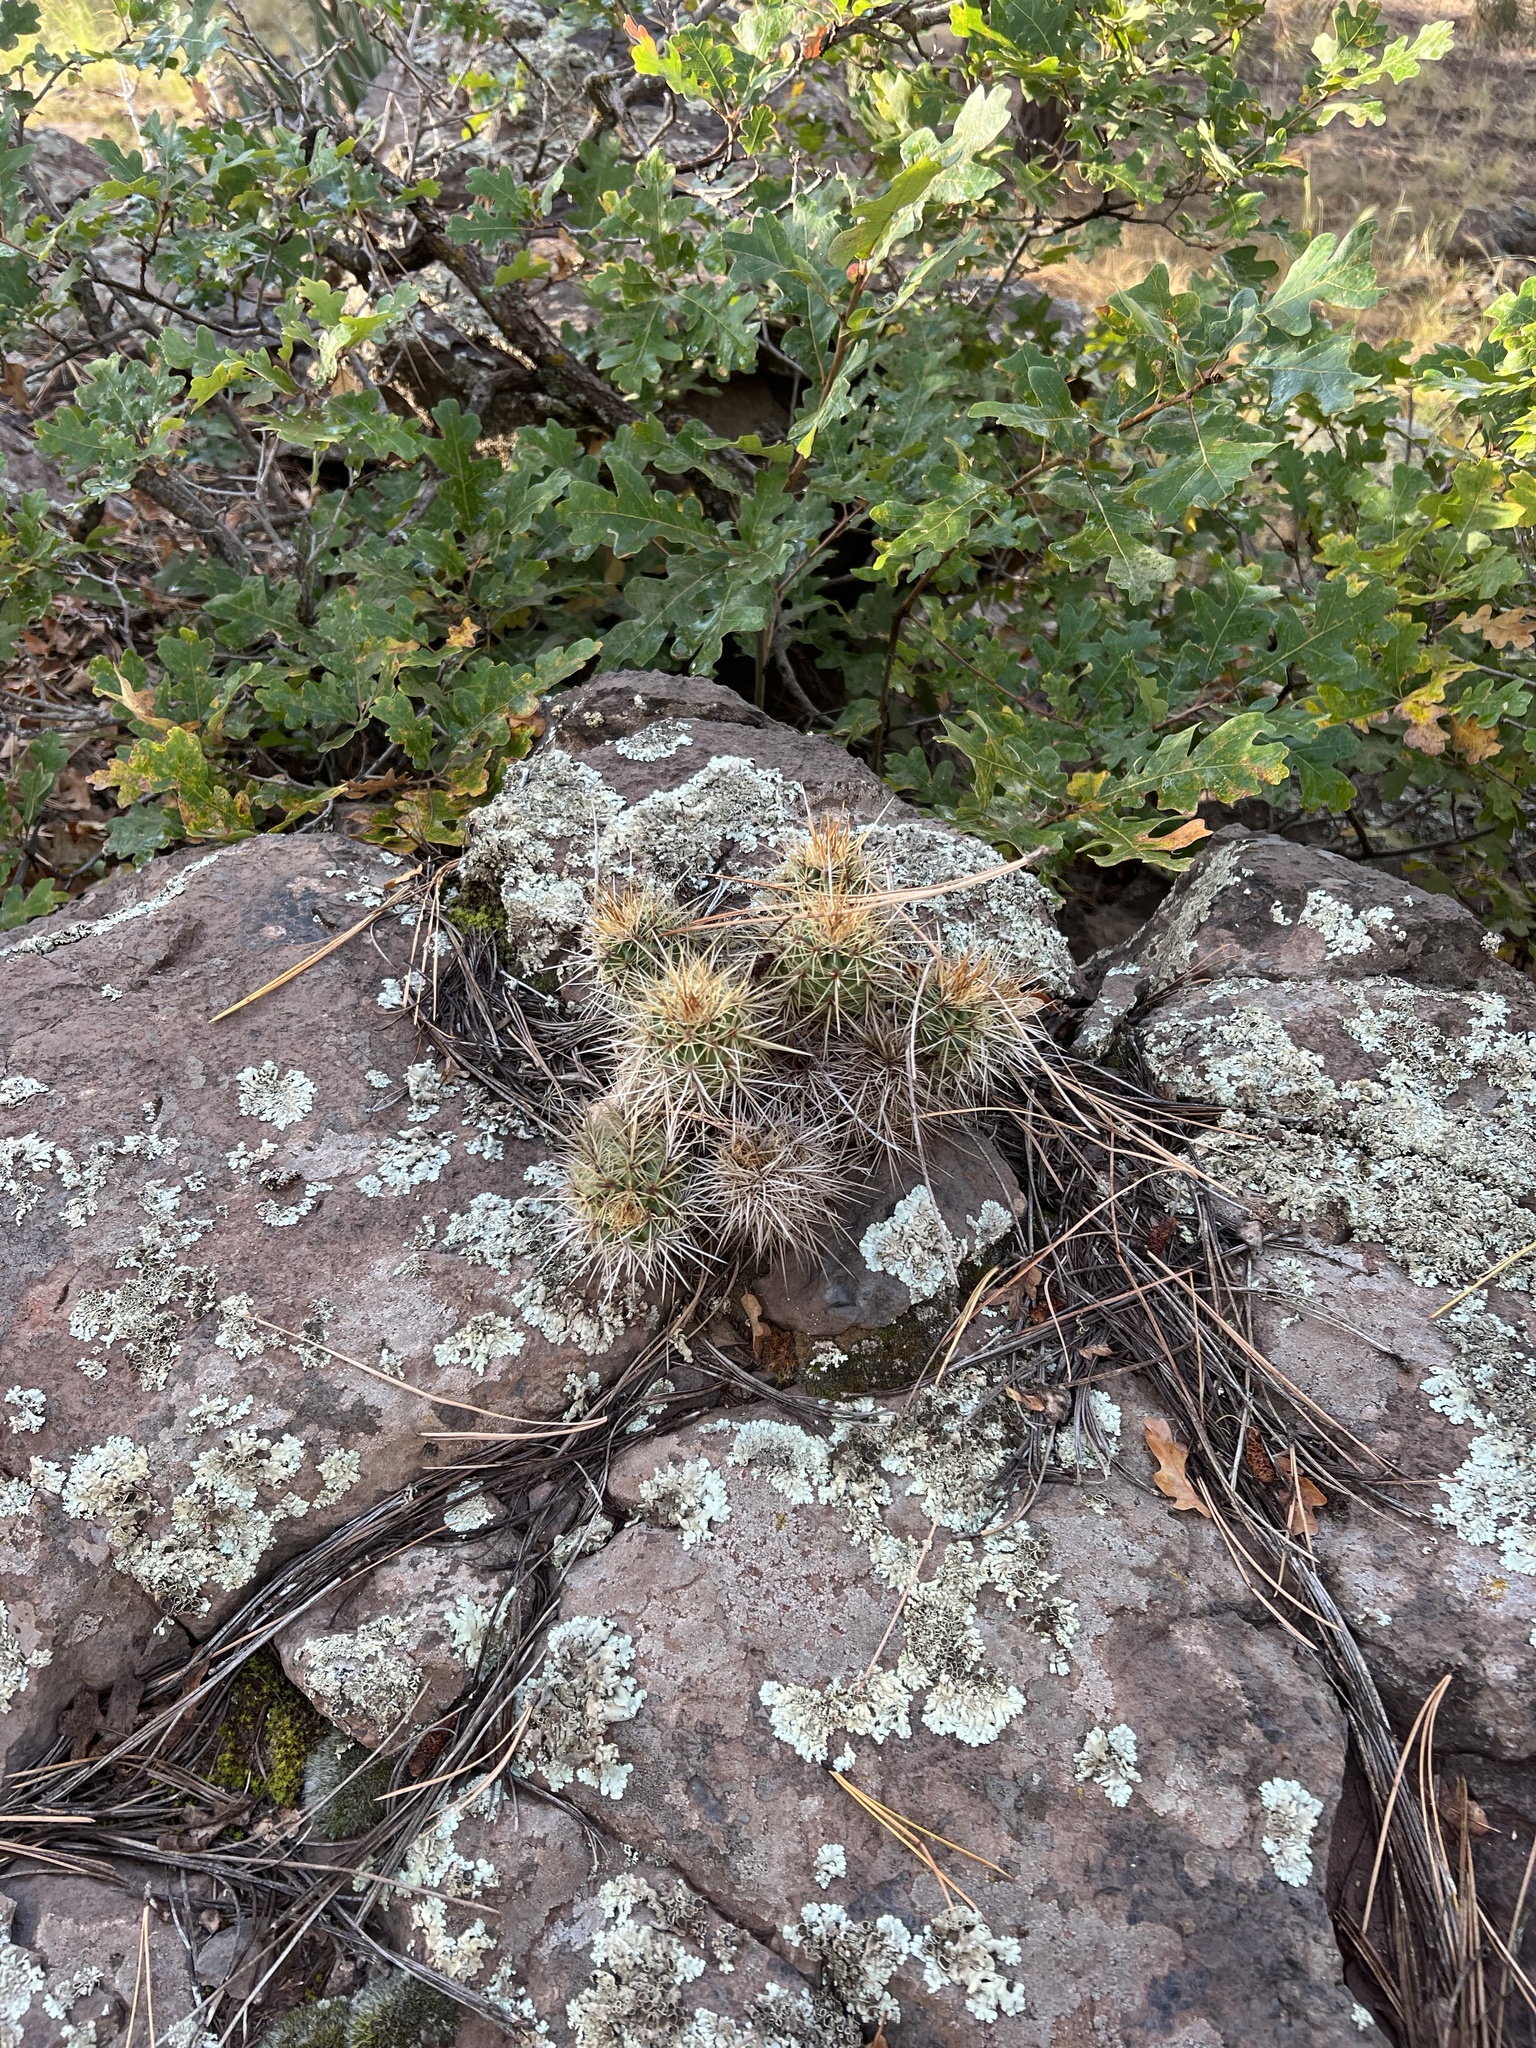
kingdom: Plantae
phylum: Tracheophyta
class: Magnoliopsida
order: Caryophyllales
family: Cactaceae
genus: Echinocereus
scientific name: Echinocereus bakeri
